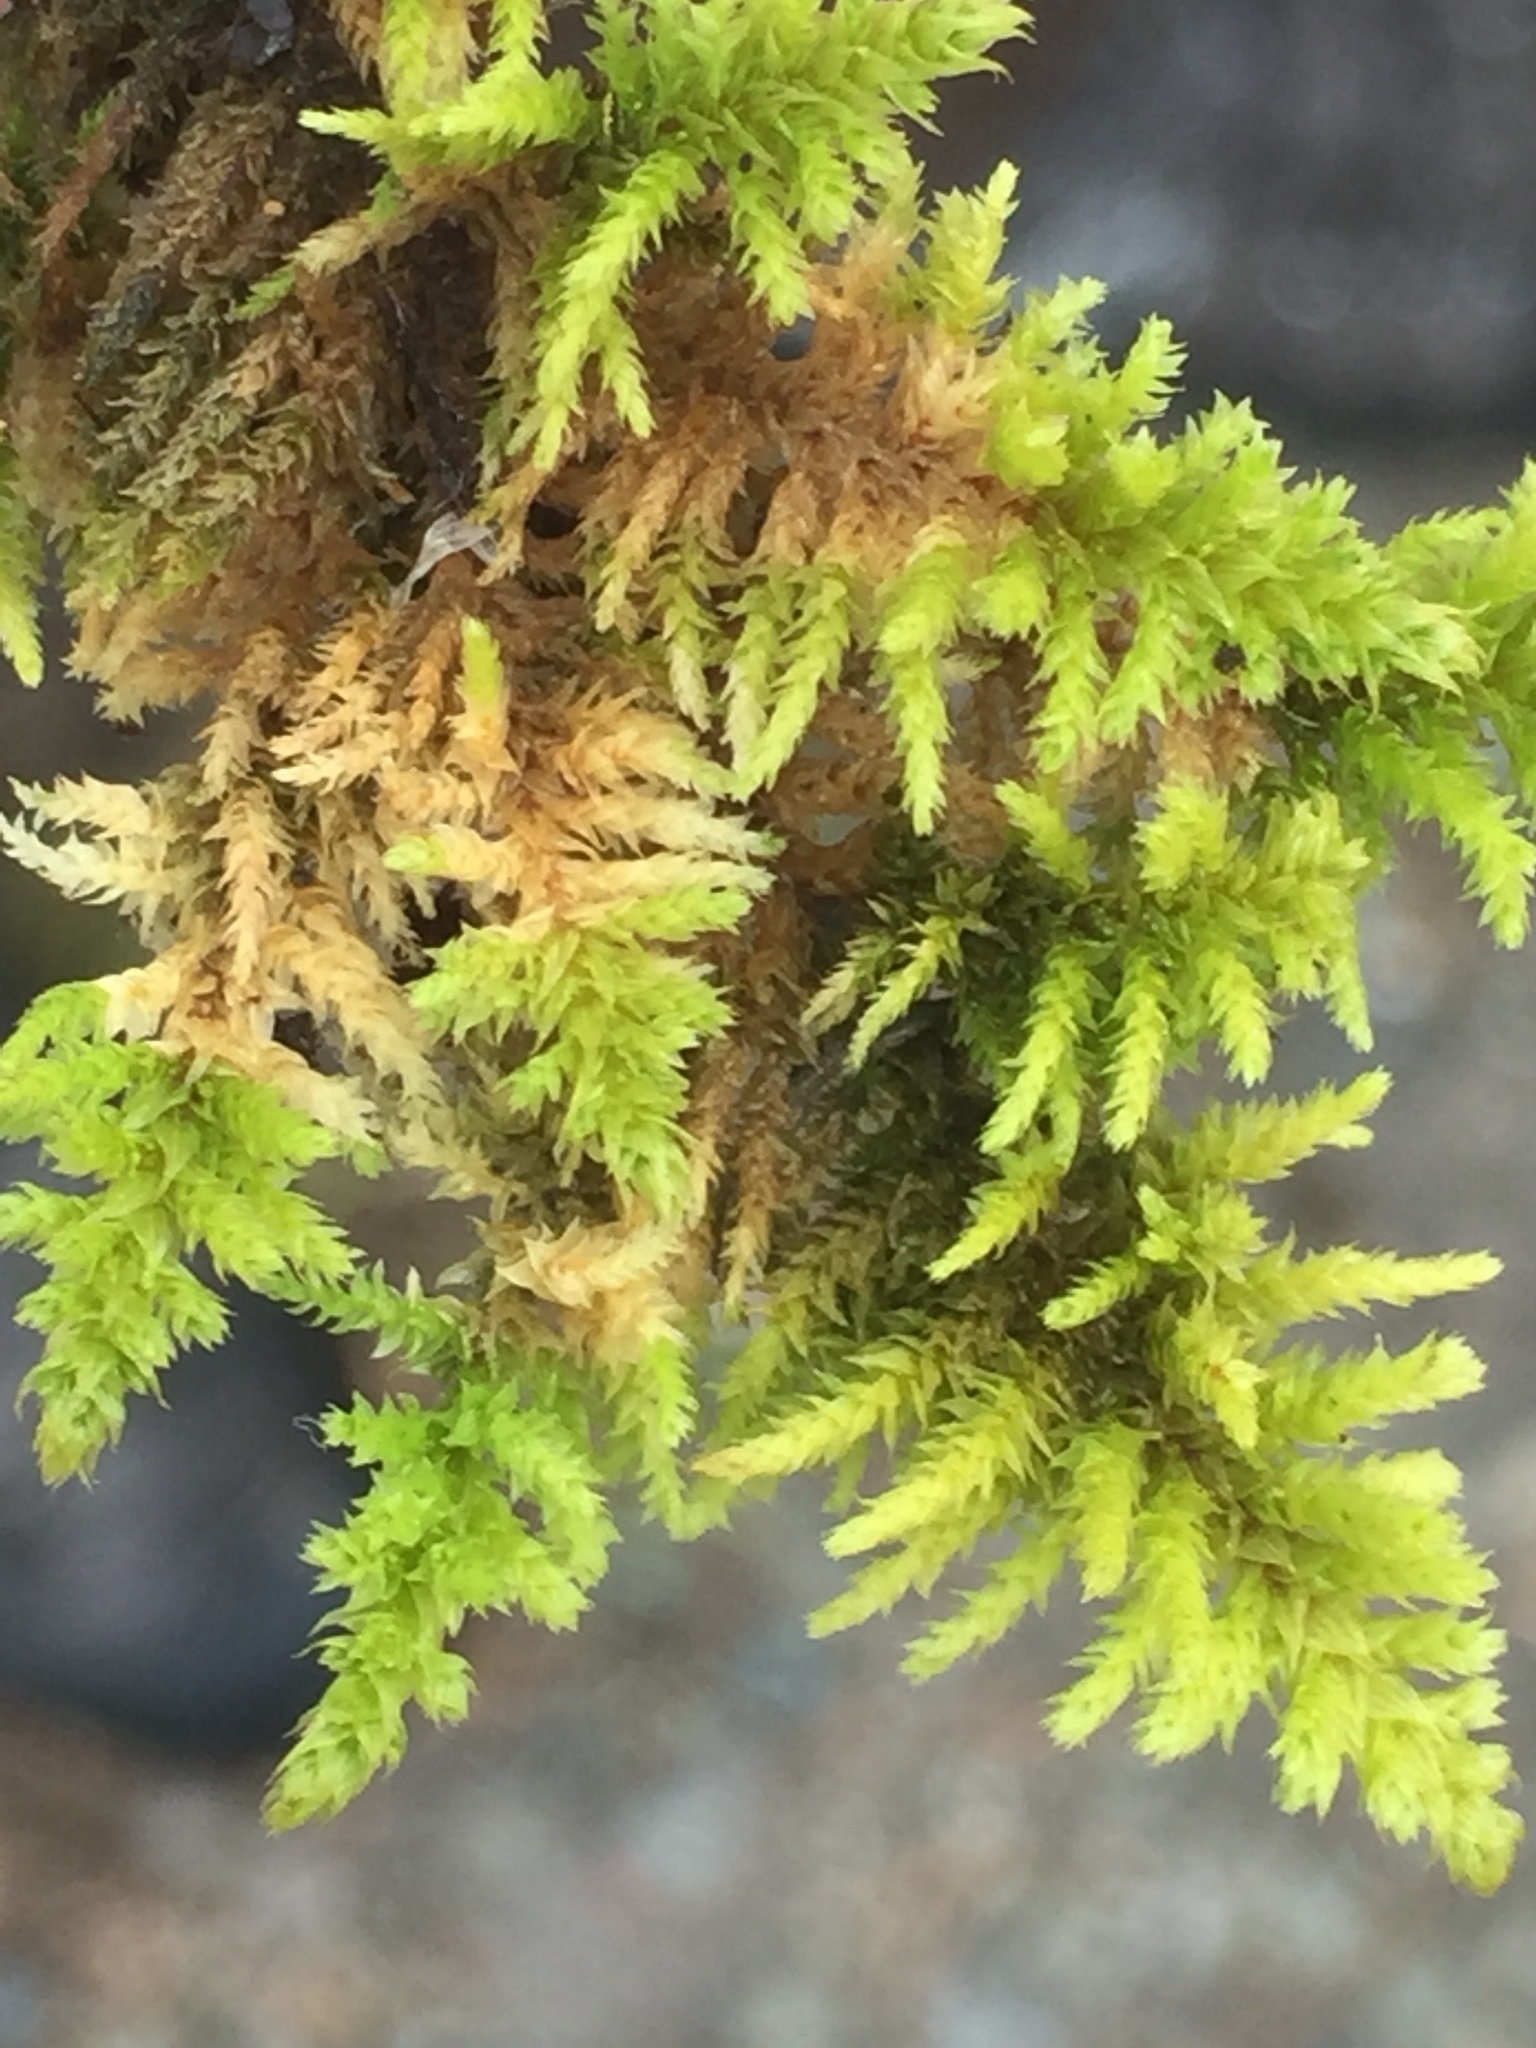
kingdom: Plantae
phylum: Bryophyta
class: Bryopsida
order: Hypnales
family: Thuidiaceae
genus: Abietinella
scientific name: Abietinella abietina
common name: Wiry fern moss
